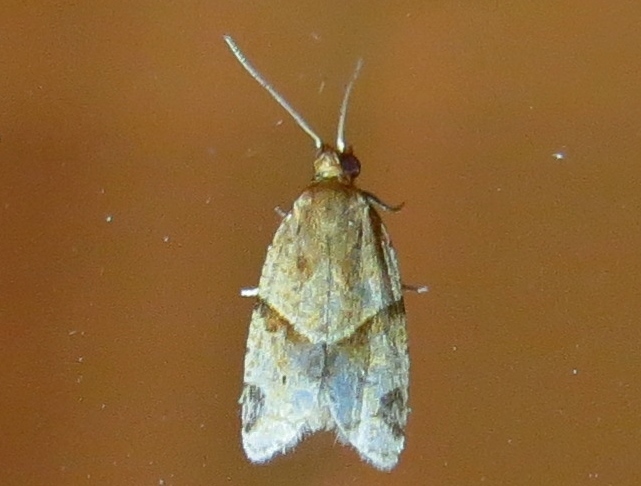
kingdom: Animalia
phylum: Arthropoda
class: Insecta
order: Lepidoptera
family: Tortricidae
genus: Clepsis
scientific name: Clepsis peritana
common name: Garden tortrix
